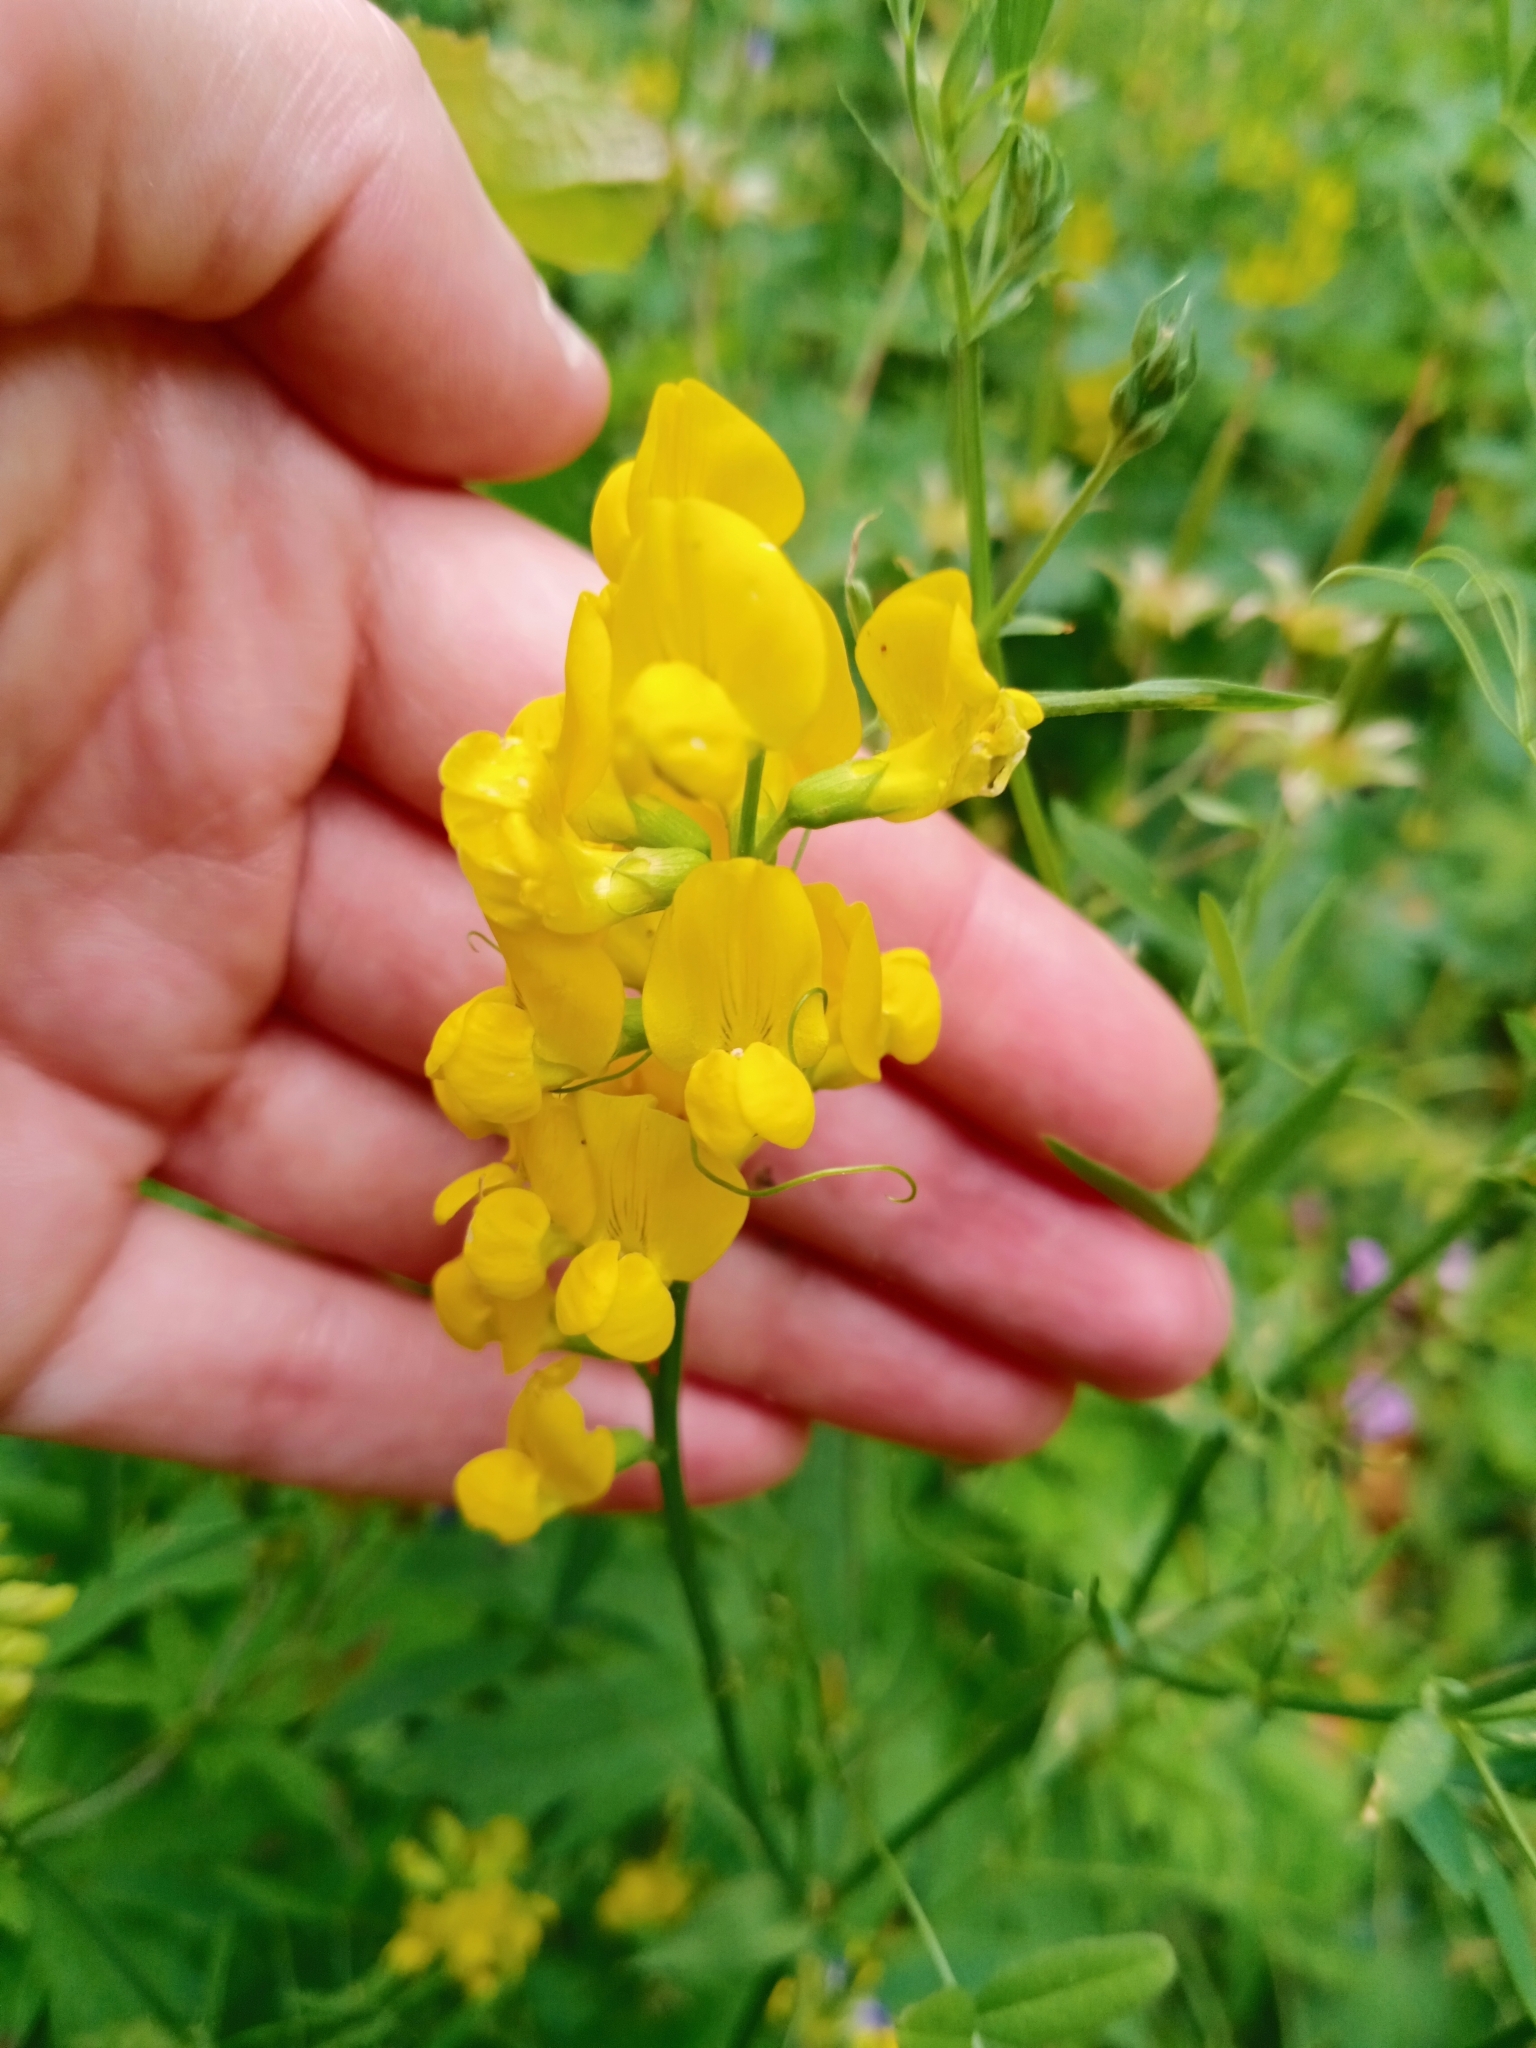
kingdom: Plantae
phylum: Tracheophyta
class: Magnoliopsida
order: Fabales
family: Fabaceae
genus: Lathyrus
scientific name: Lathyrus pratensis
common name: Meadow vetchling
